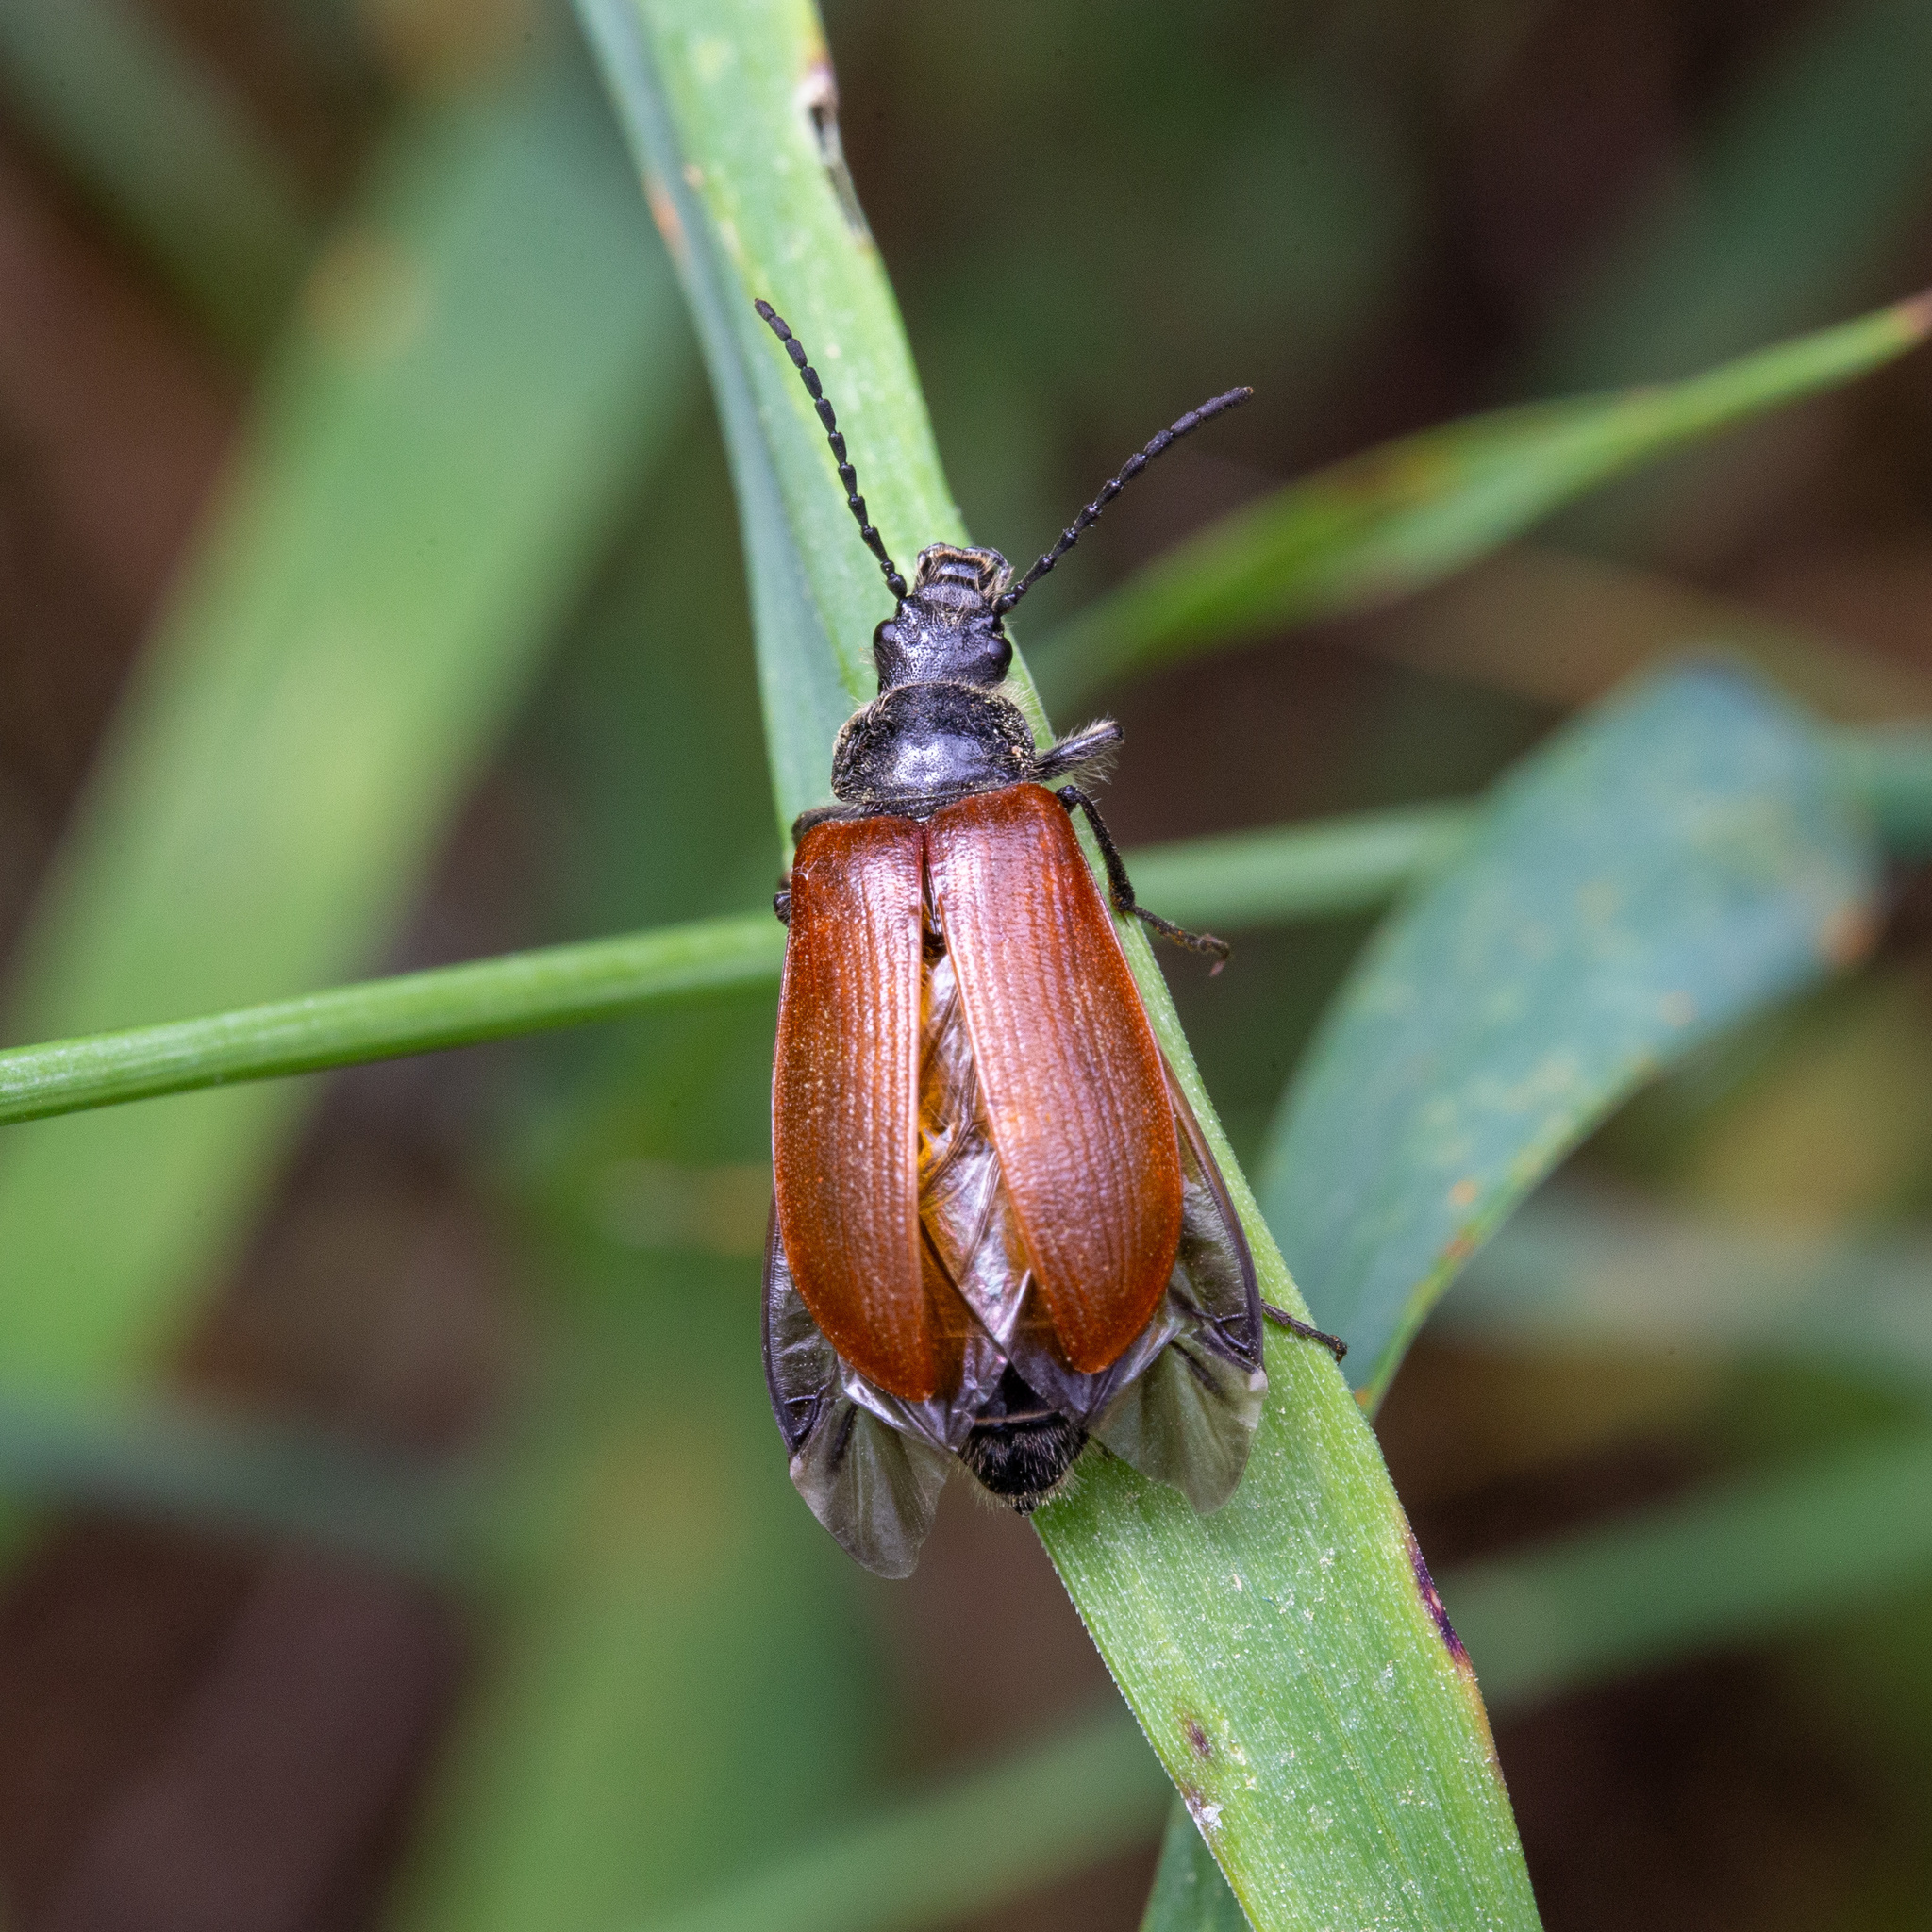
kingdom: Animalia
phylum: Arthropoda
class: Insecta
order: Coleoptera
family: Tenebrionidae
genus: Omophlus
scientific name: Omophlus
